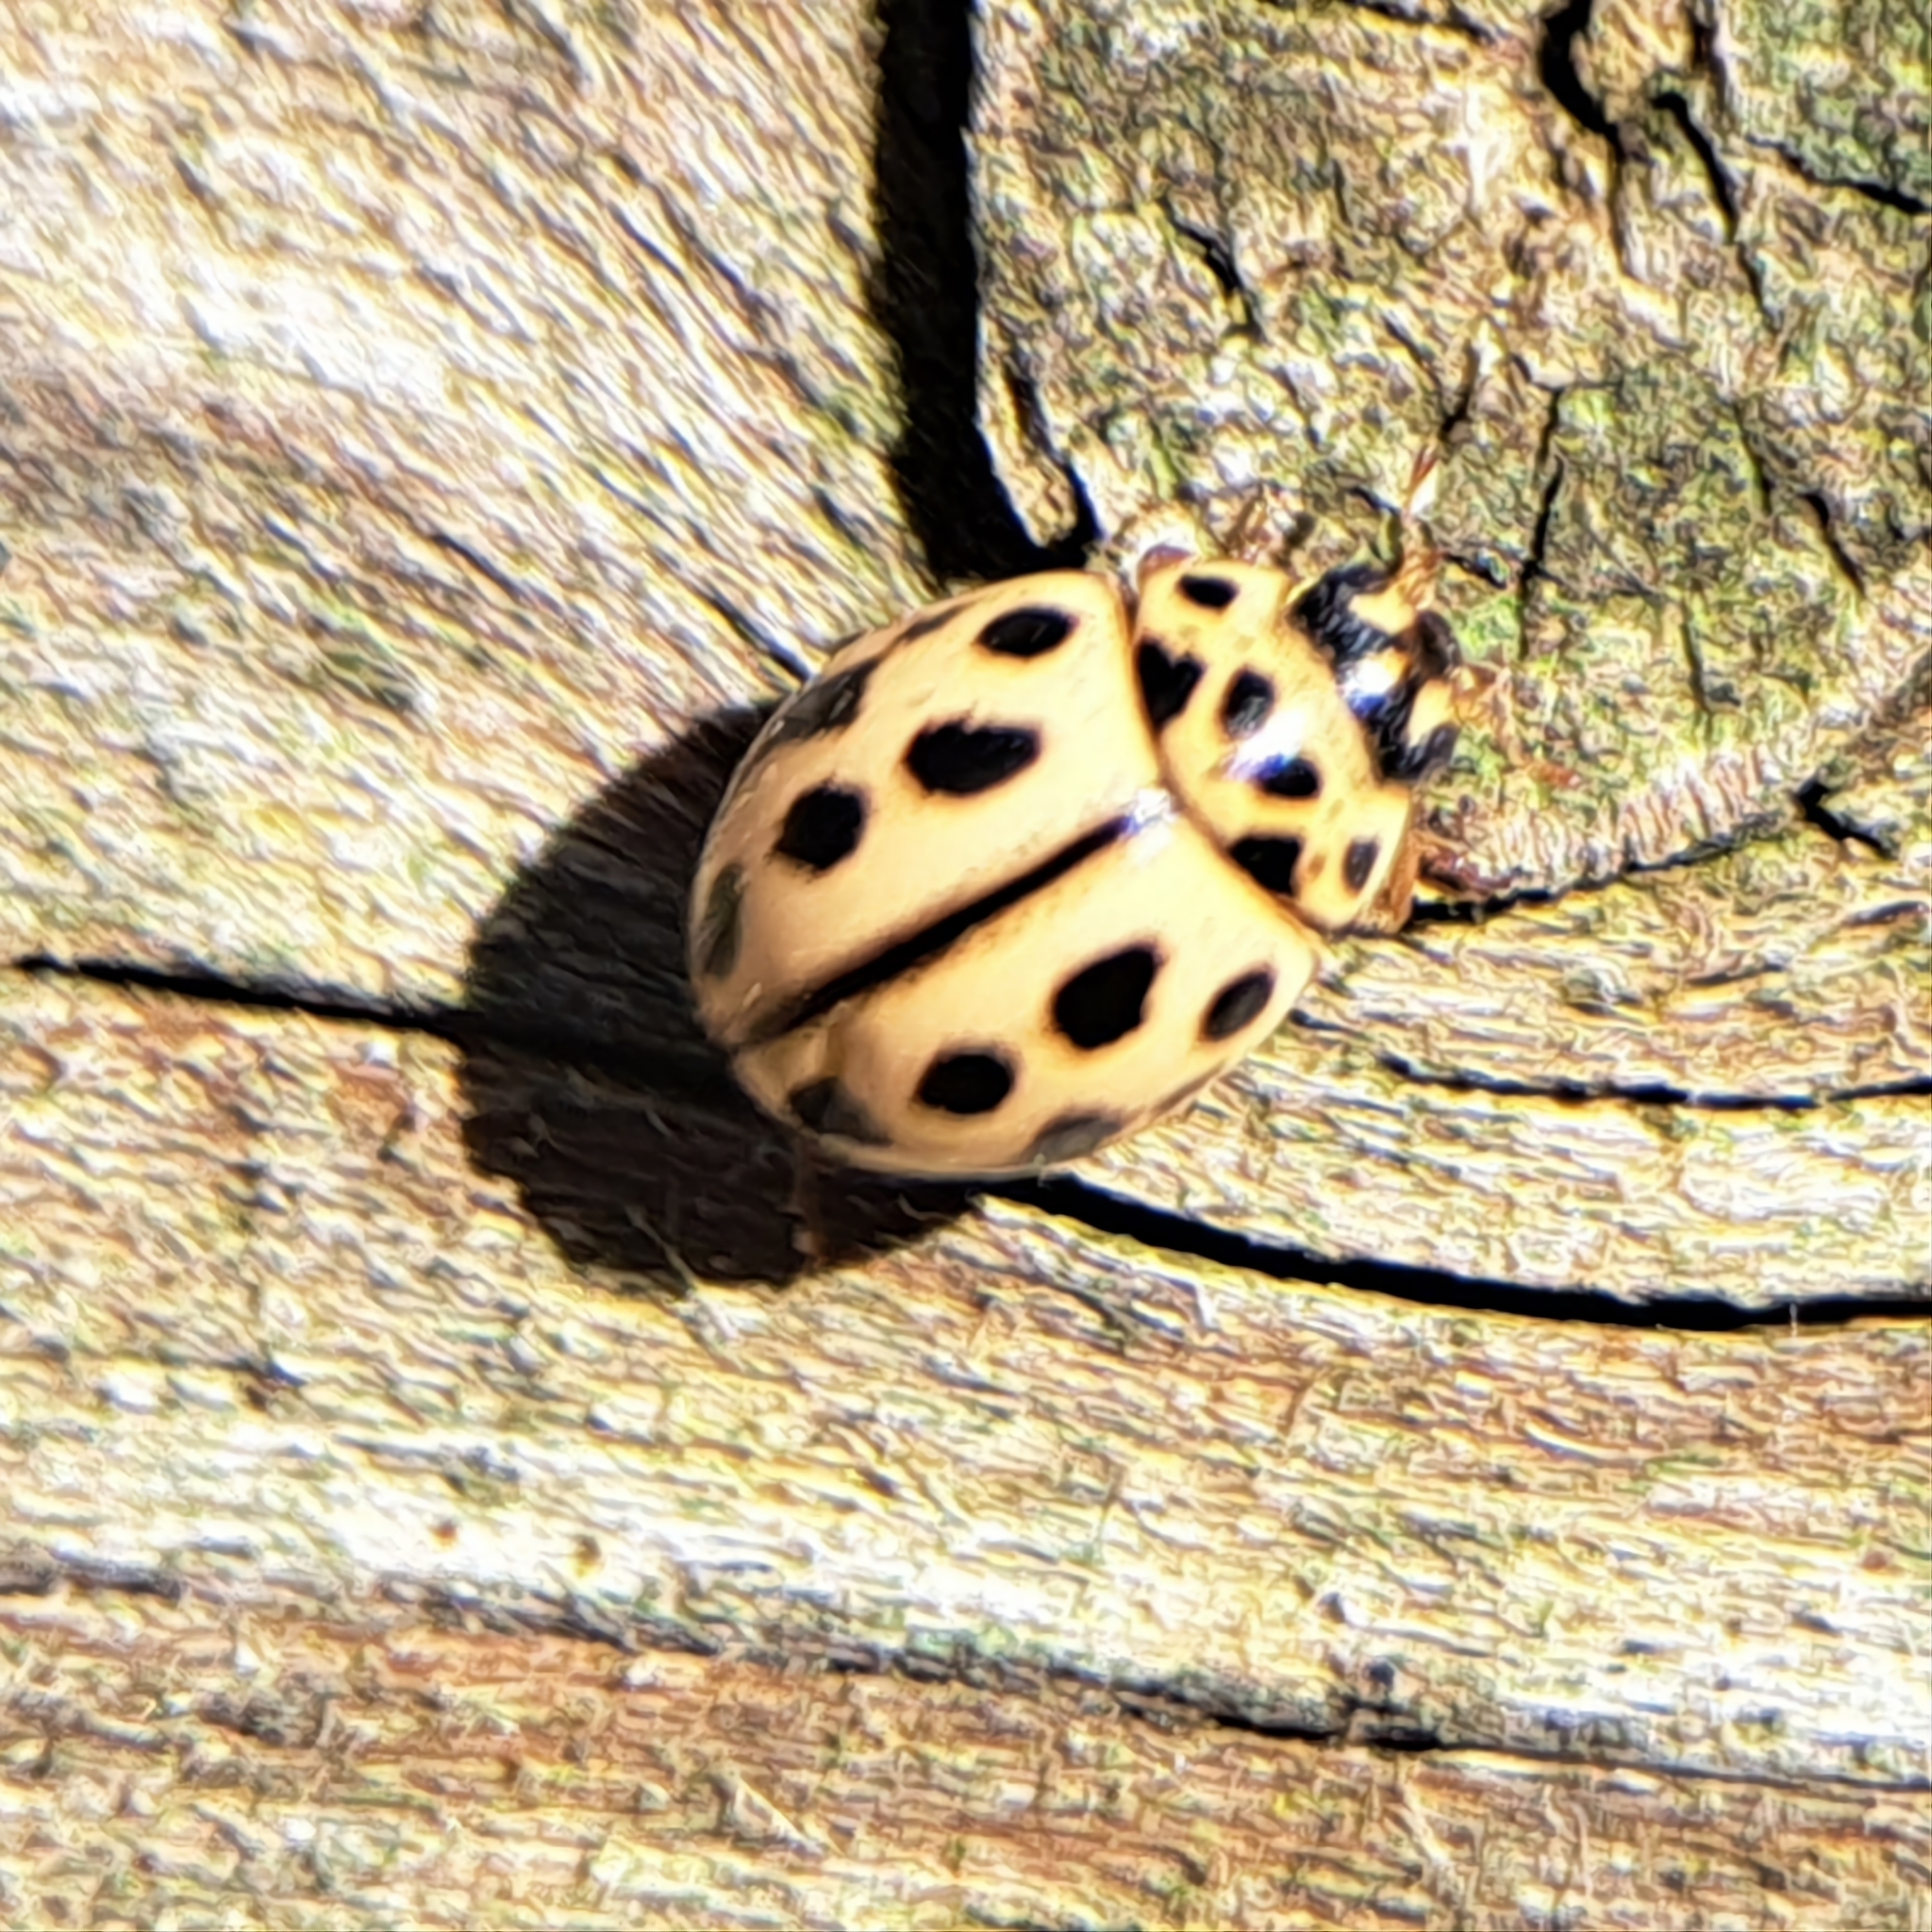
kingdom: Animalia
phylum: Arthropoda
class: Insecta
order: Coleoptera
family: Coccinellidae
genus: Tytthaspis
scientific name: Tytthaspis sedecimpunctata
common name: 16-spot ladybird
